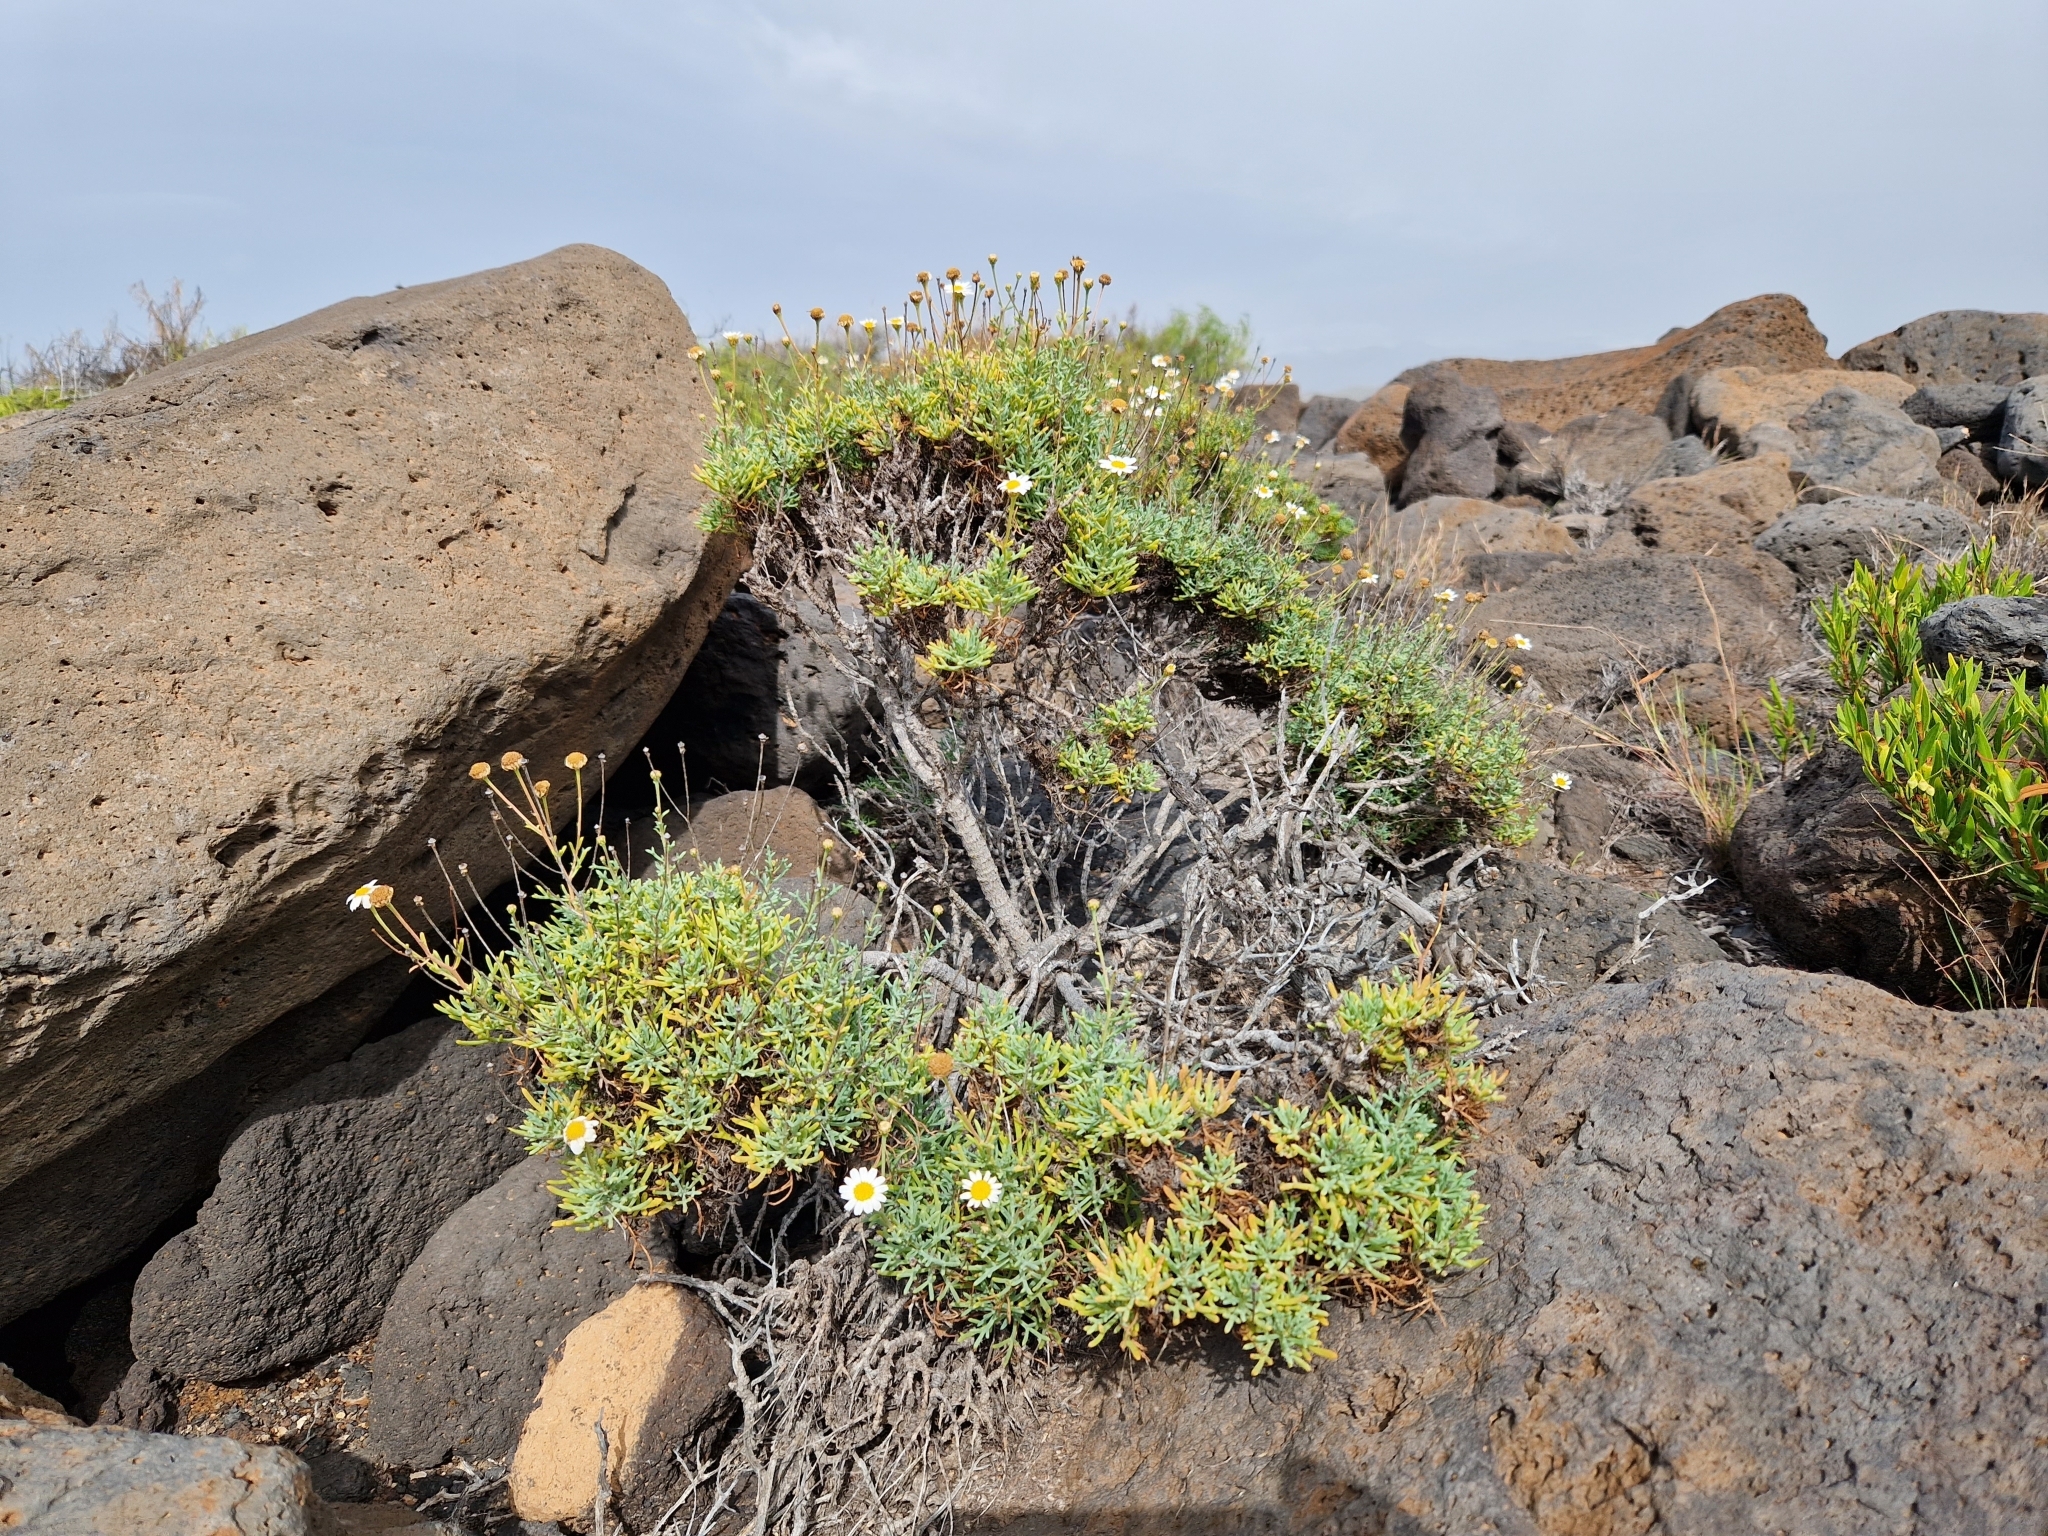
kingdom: Plantae
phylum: Tracheophyta
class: Magnoliopsida
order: Asterales
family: Asteraceae
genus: Argyranthemum
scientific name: Argyranthemum frutescens
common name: Paris daisy
